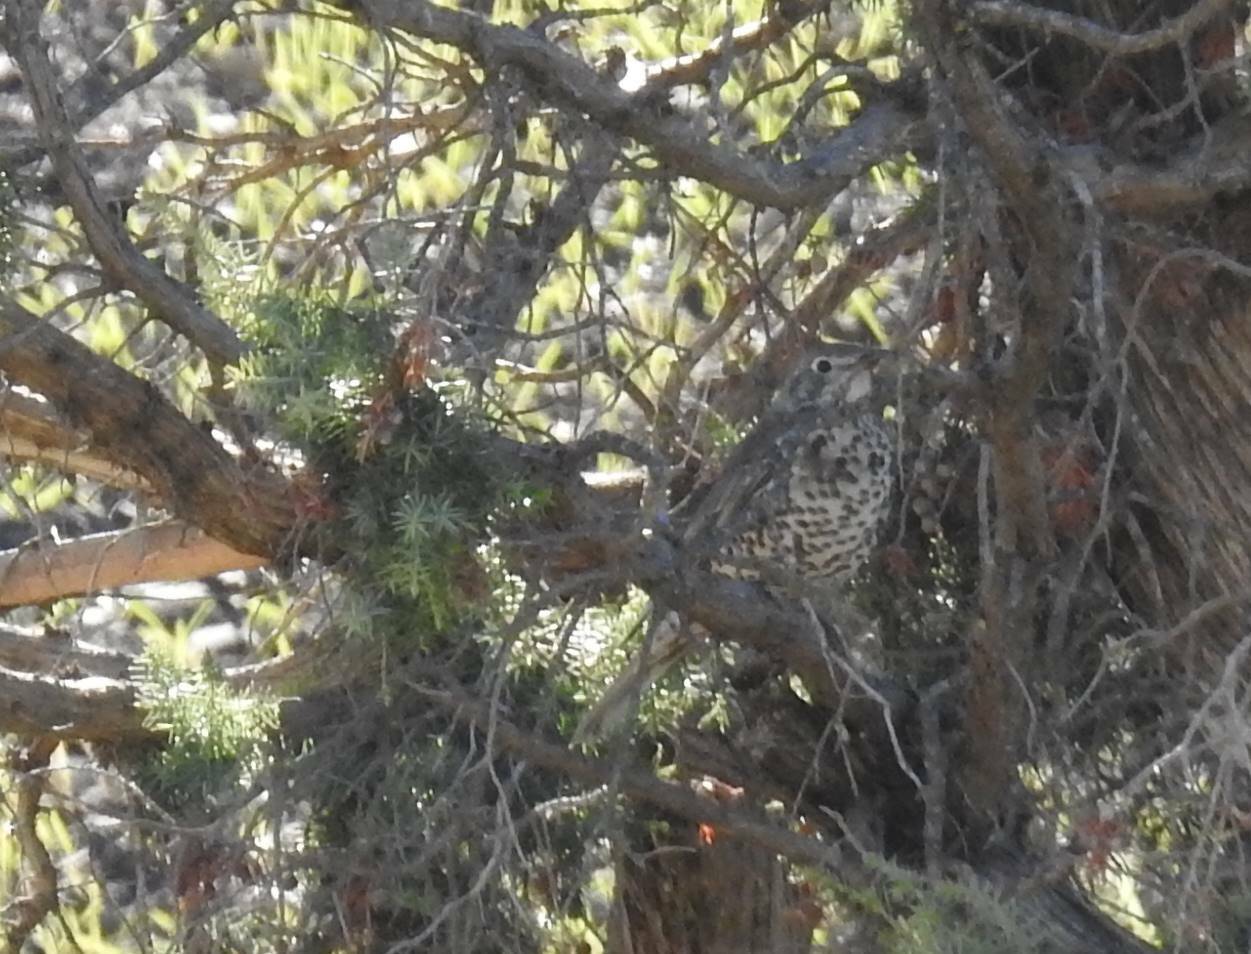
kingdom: Animalia
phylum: Chordata
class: Aves
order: Passeriformes
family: Turdidae
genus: Turdus
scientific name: Turdus viscivorus
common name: Mistle thrush
